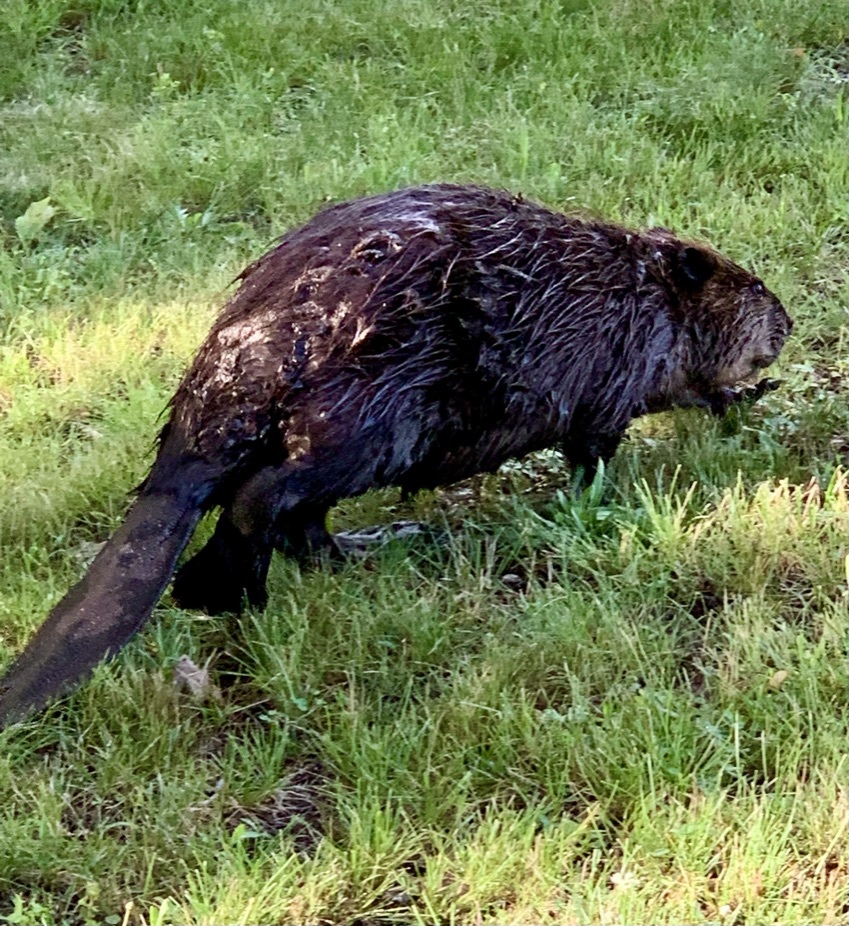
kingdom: Animalia
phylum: Chordata
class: Mammalia
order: Rodentia
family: Castoridae
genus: Castor
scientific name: Castor canadensis
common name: American beaver
